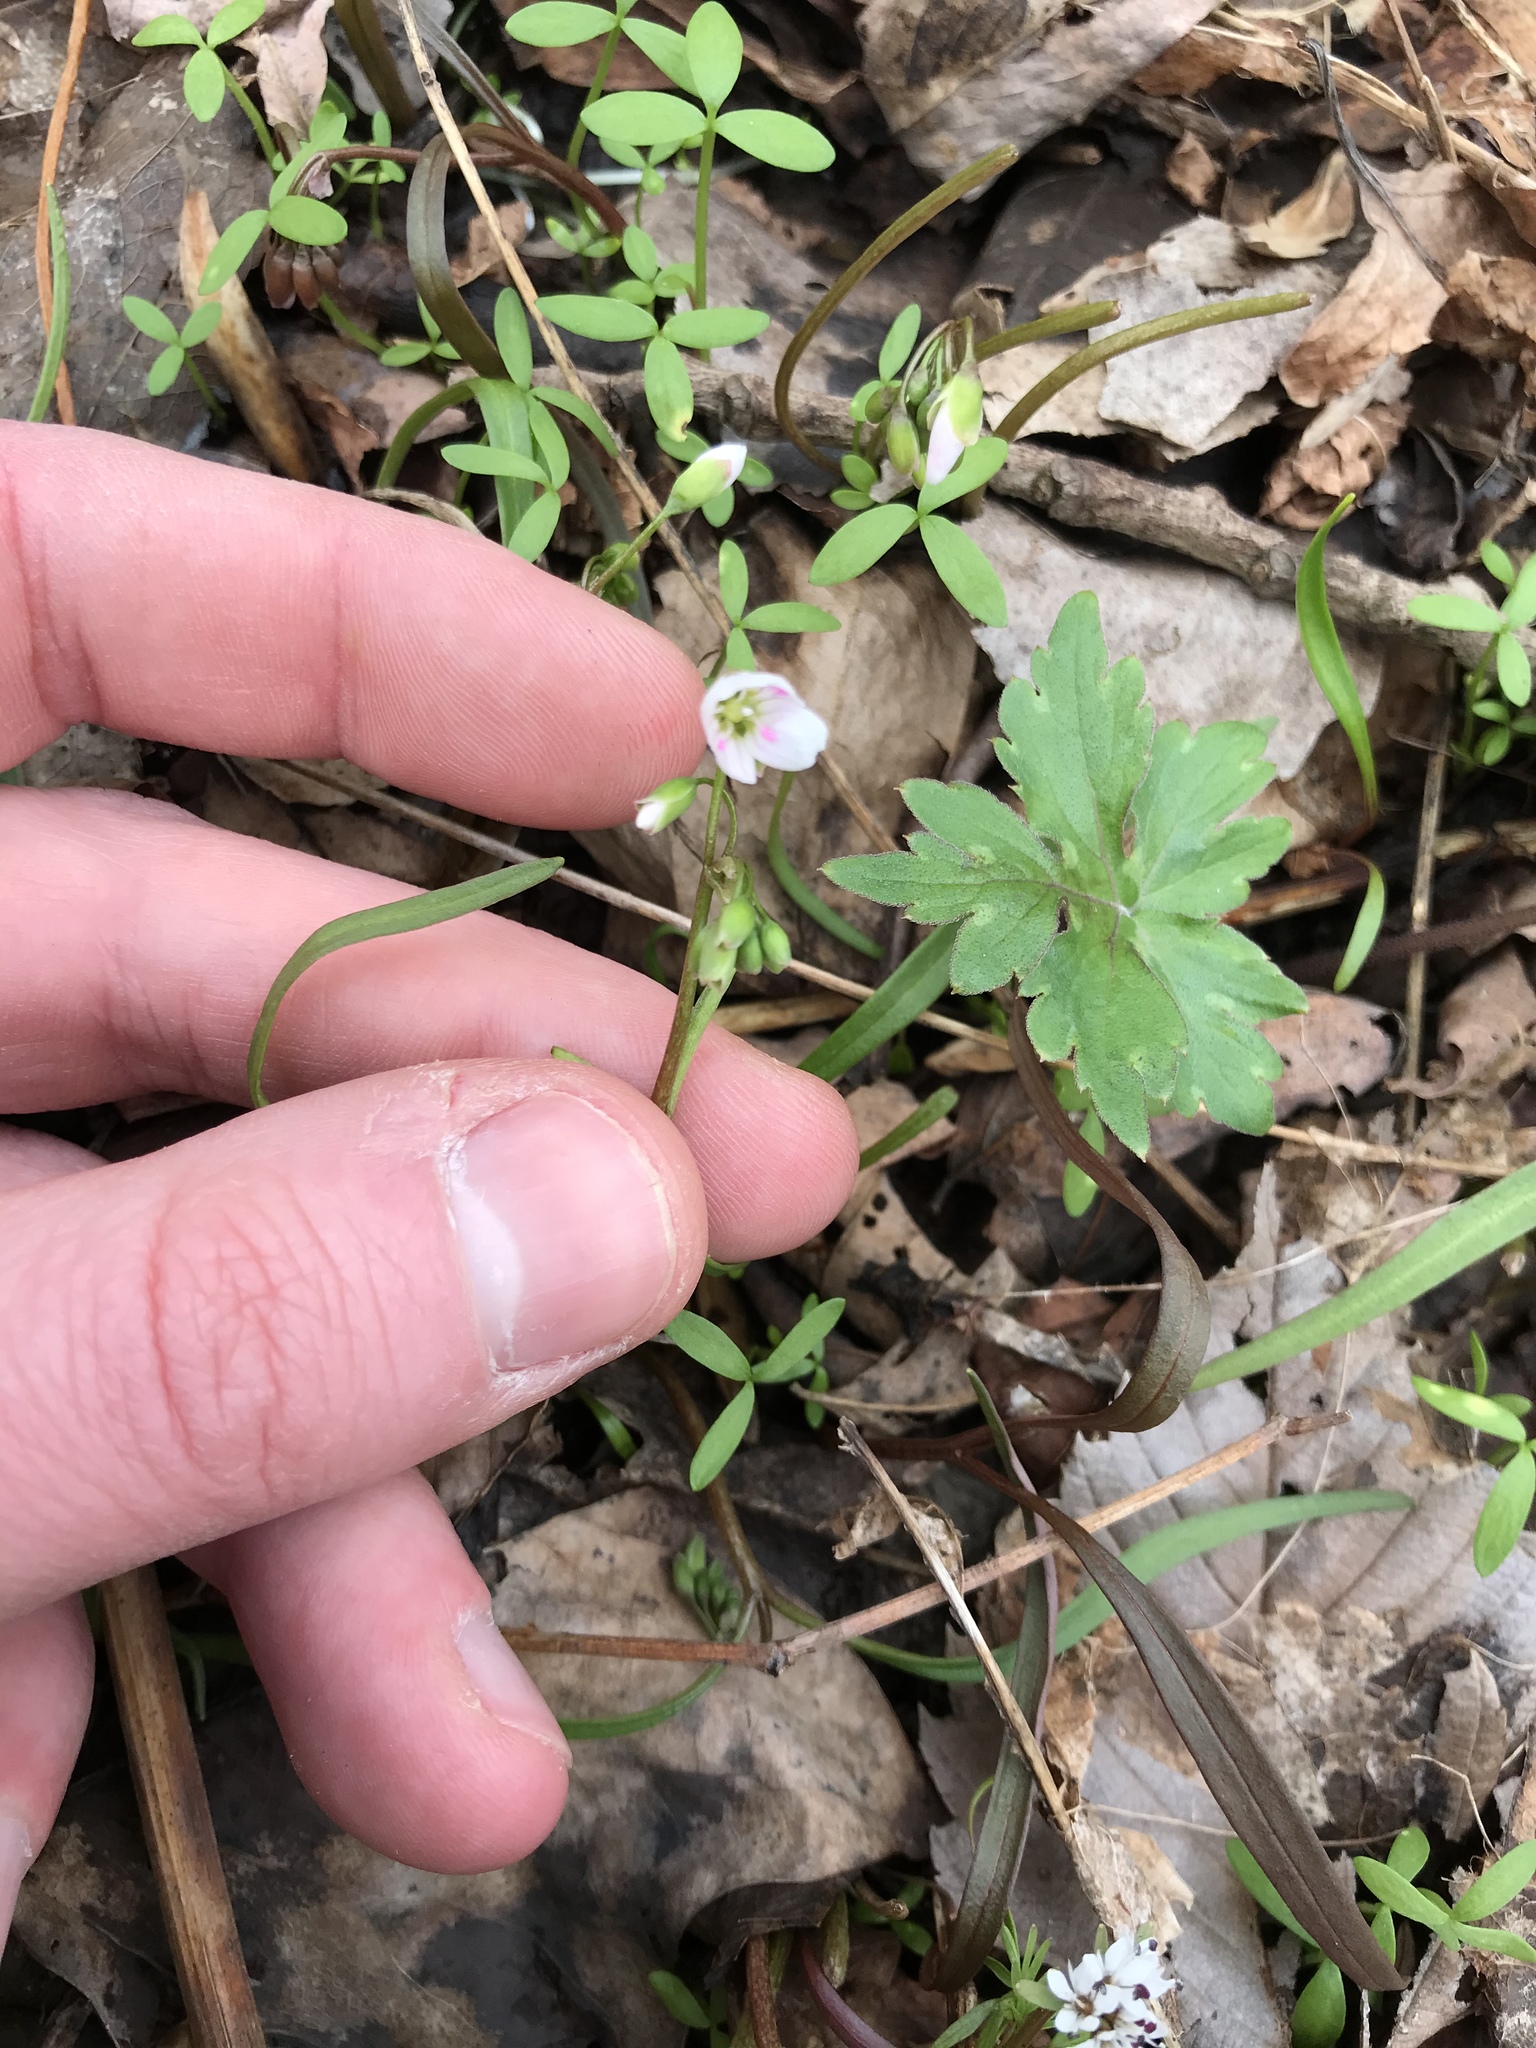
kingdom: Plantae
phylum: Tracheophyta
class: Magnoliopsida
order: Caryophyllales
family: Montiaceae
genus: Claytonia
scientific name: Claytonia virginica
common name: Virginia springbeauty
